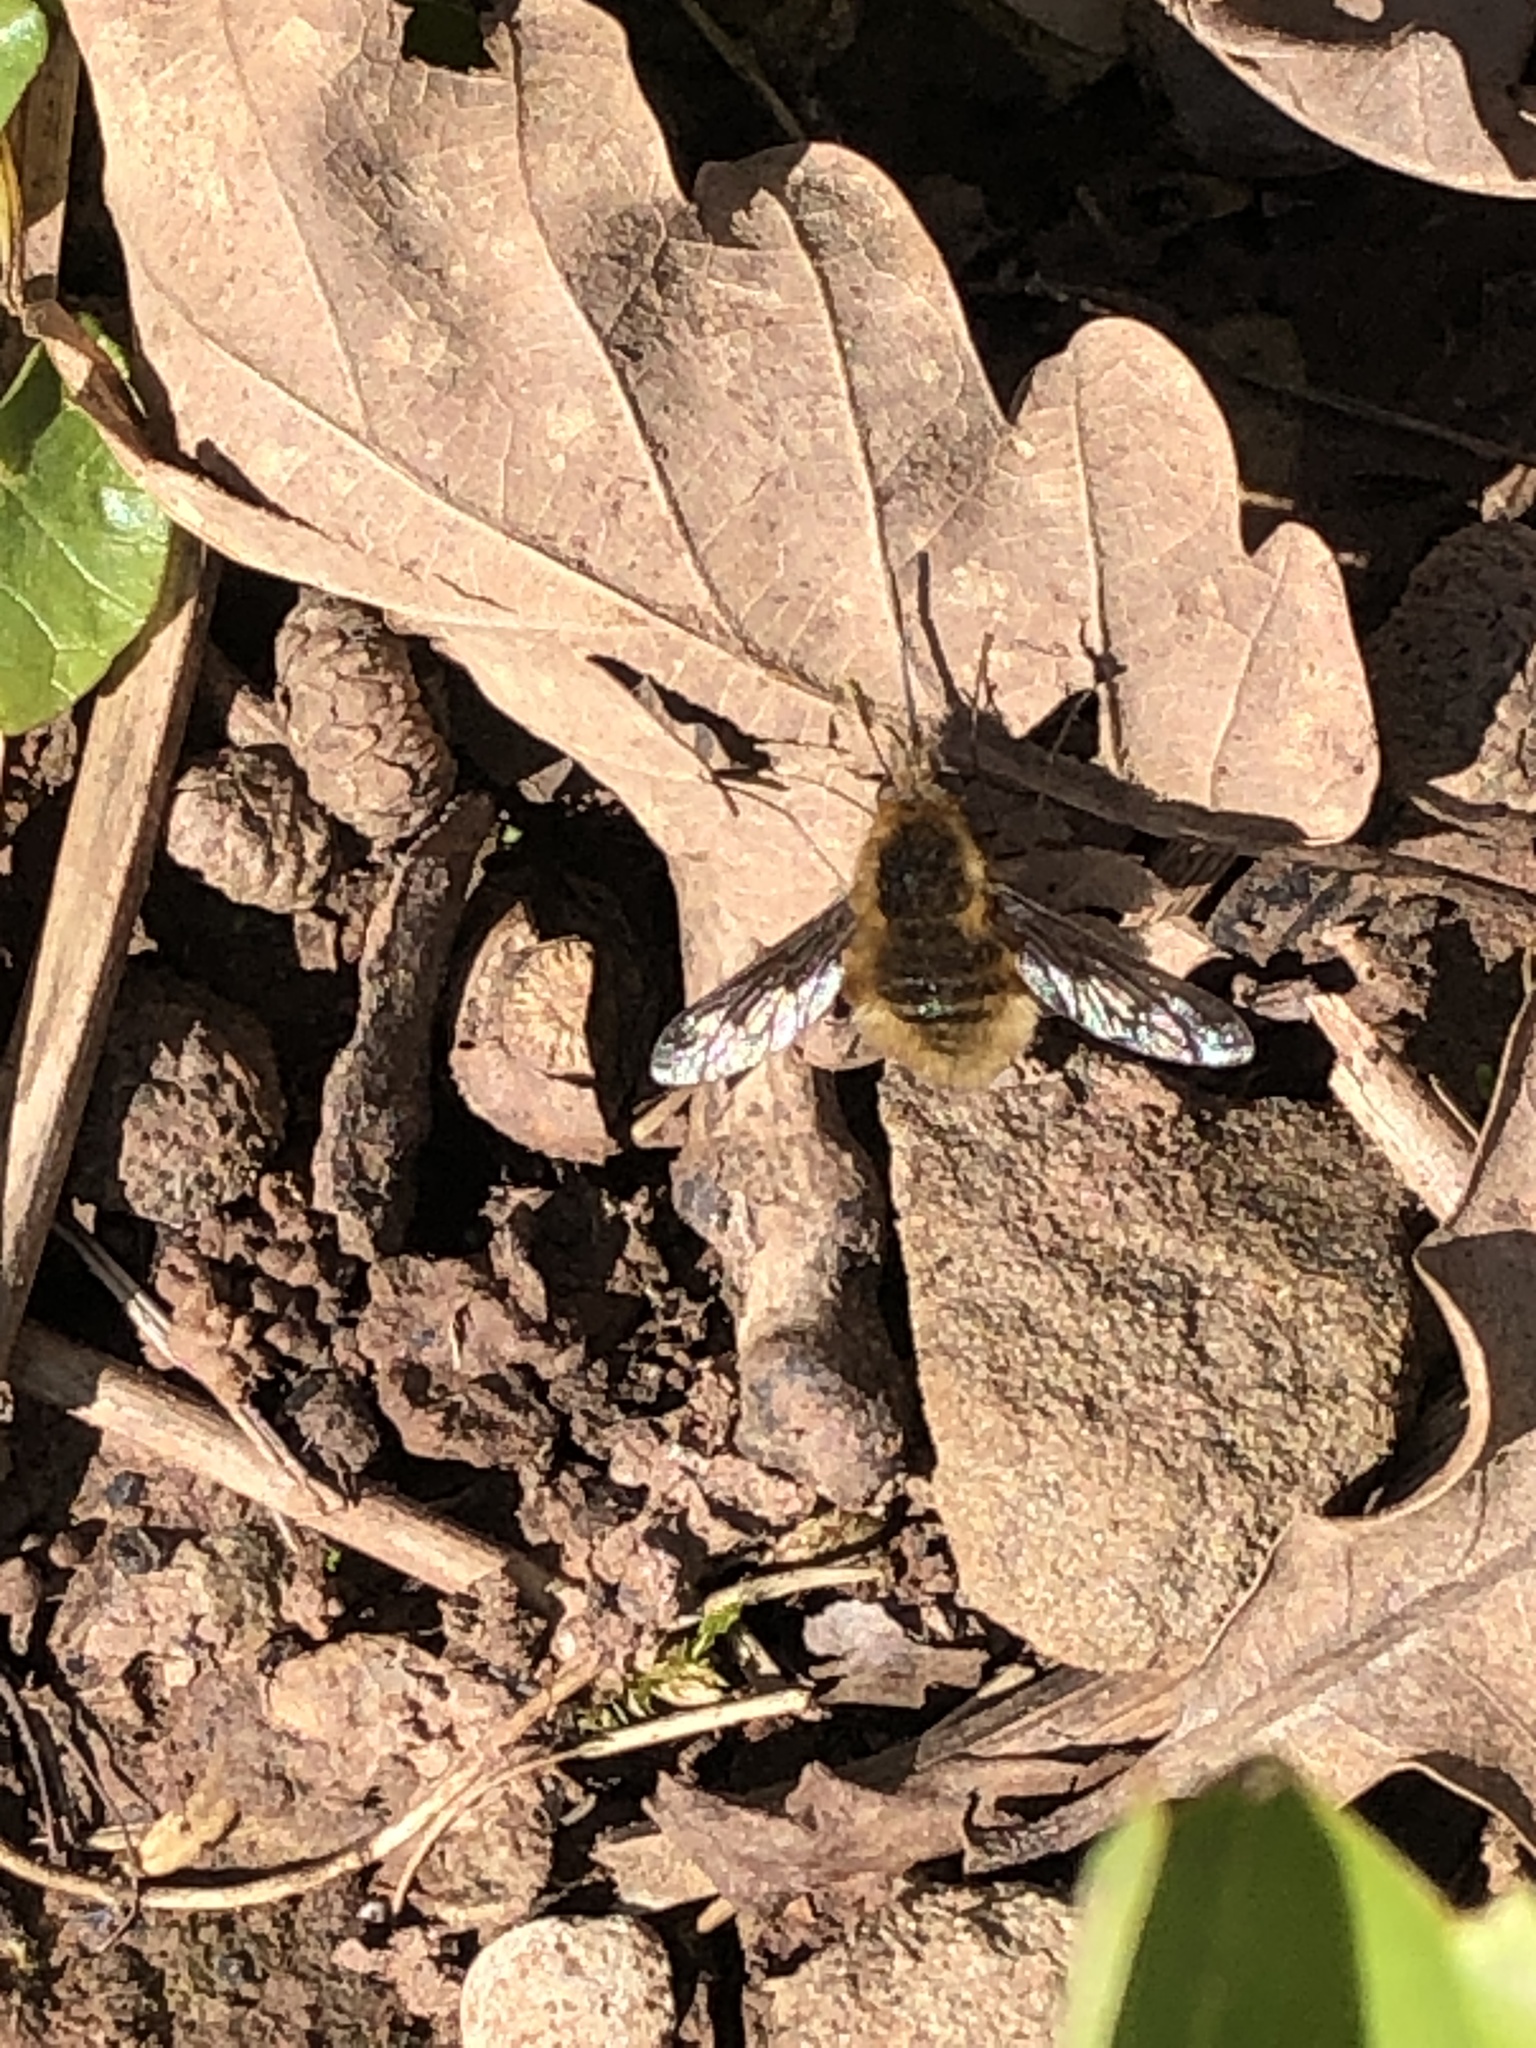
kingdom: Animalia
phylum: Arthropoda
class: Insecta
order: Diptera
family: Bombyliidae
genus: Bombylius
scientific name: Bombylius major
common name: Bee fly
